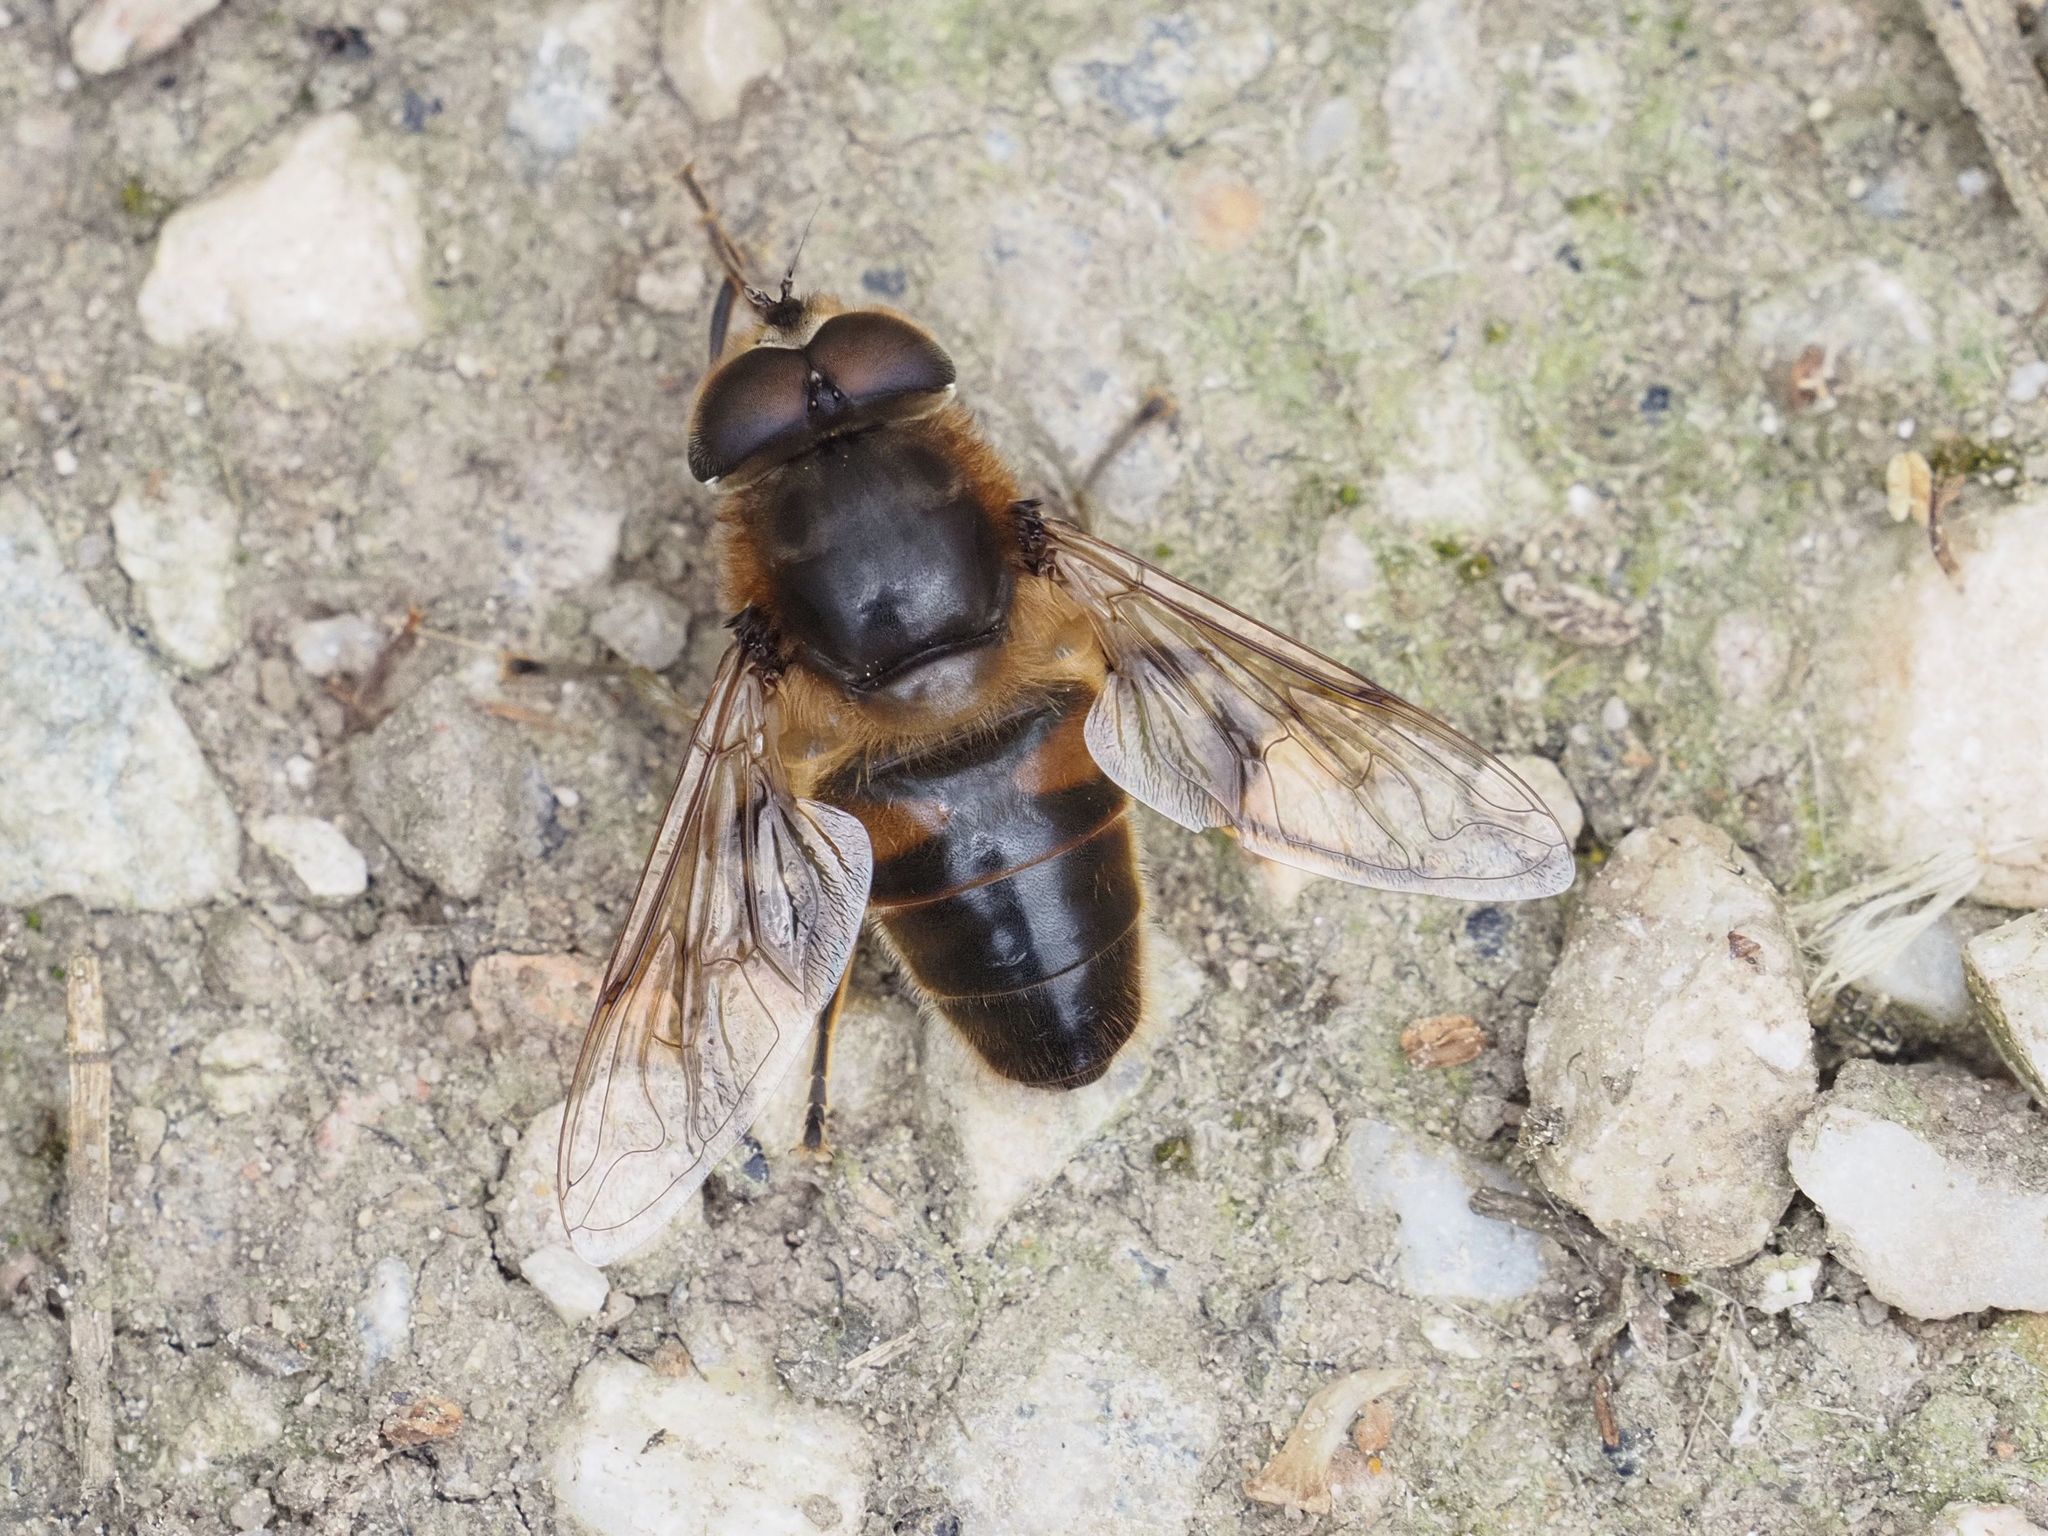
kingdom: Animalia
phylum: Arthropoda
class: Insecta
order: Diptera
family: Syrphidae
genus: Eristalis
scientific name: Eristalis tenax
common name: Drone fly
